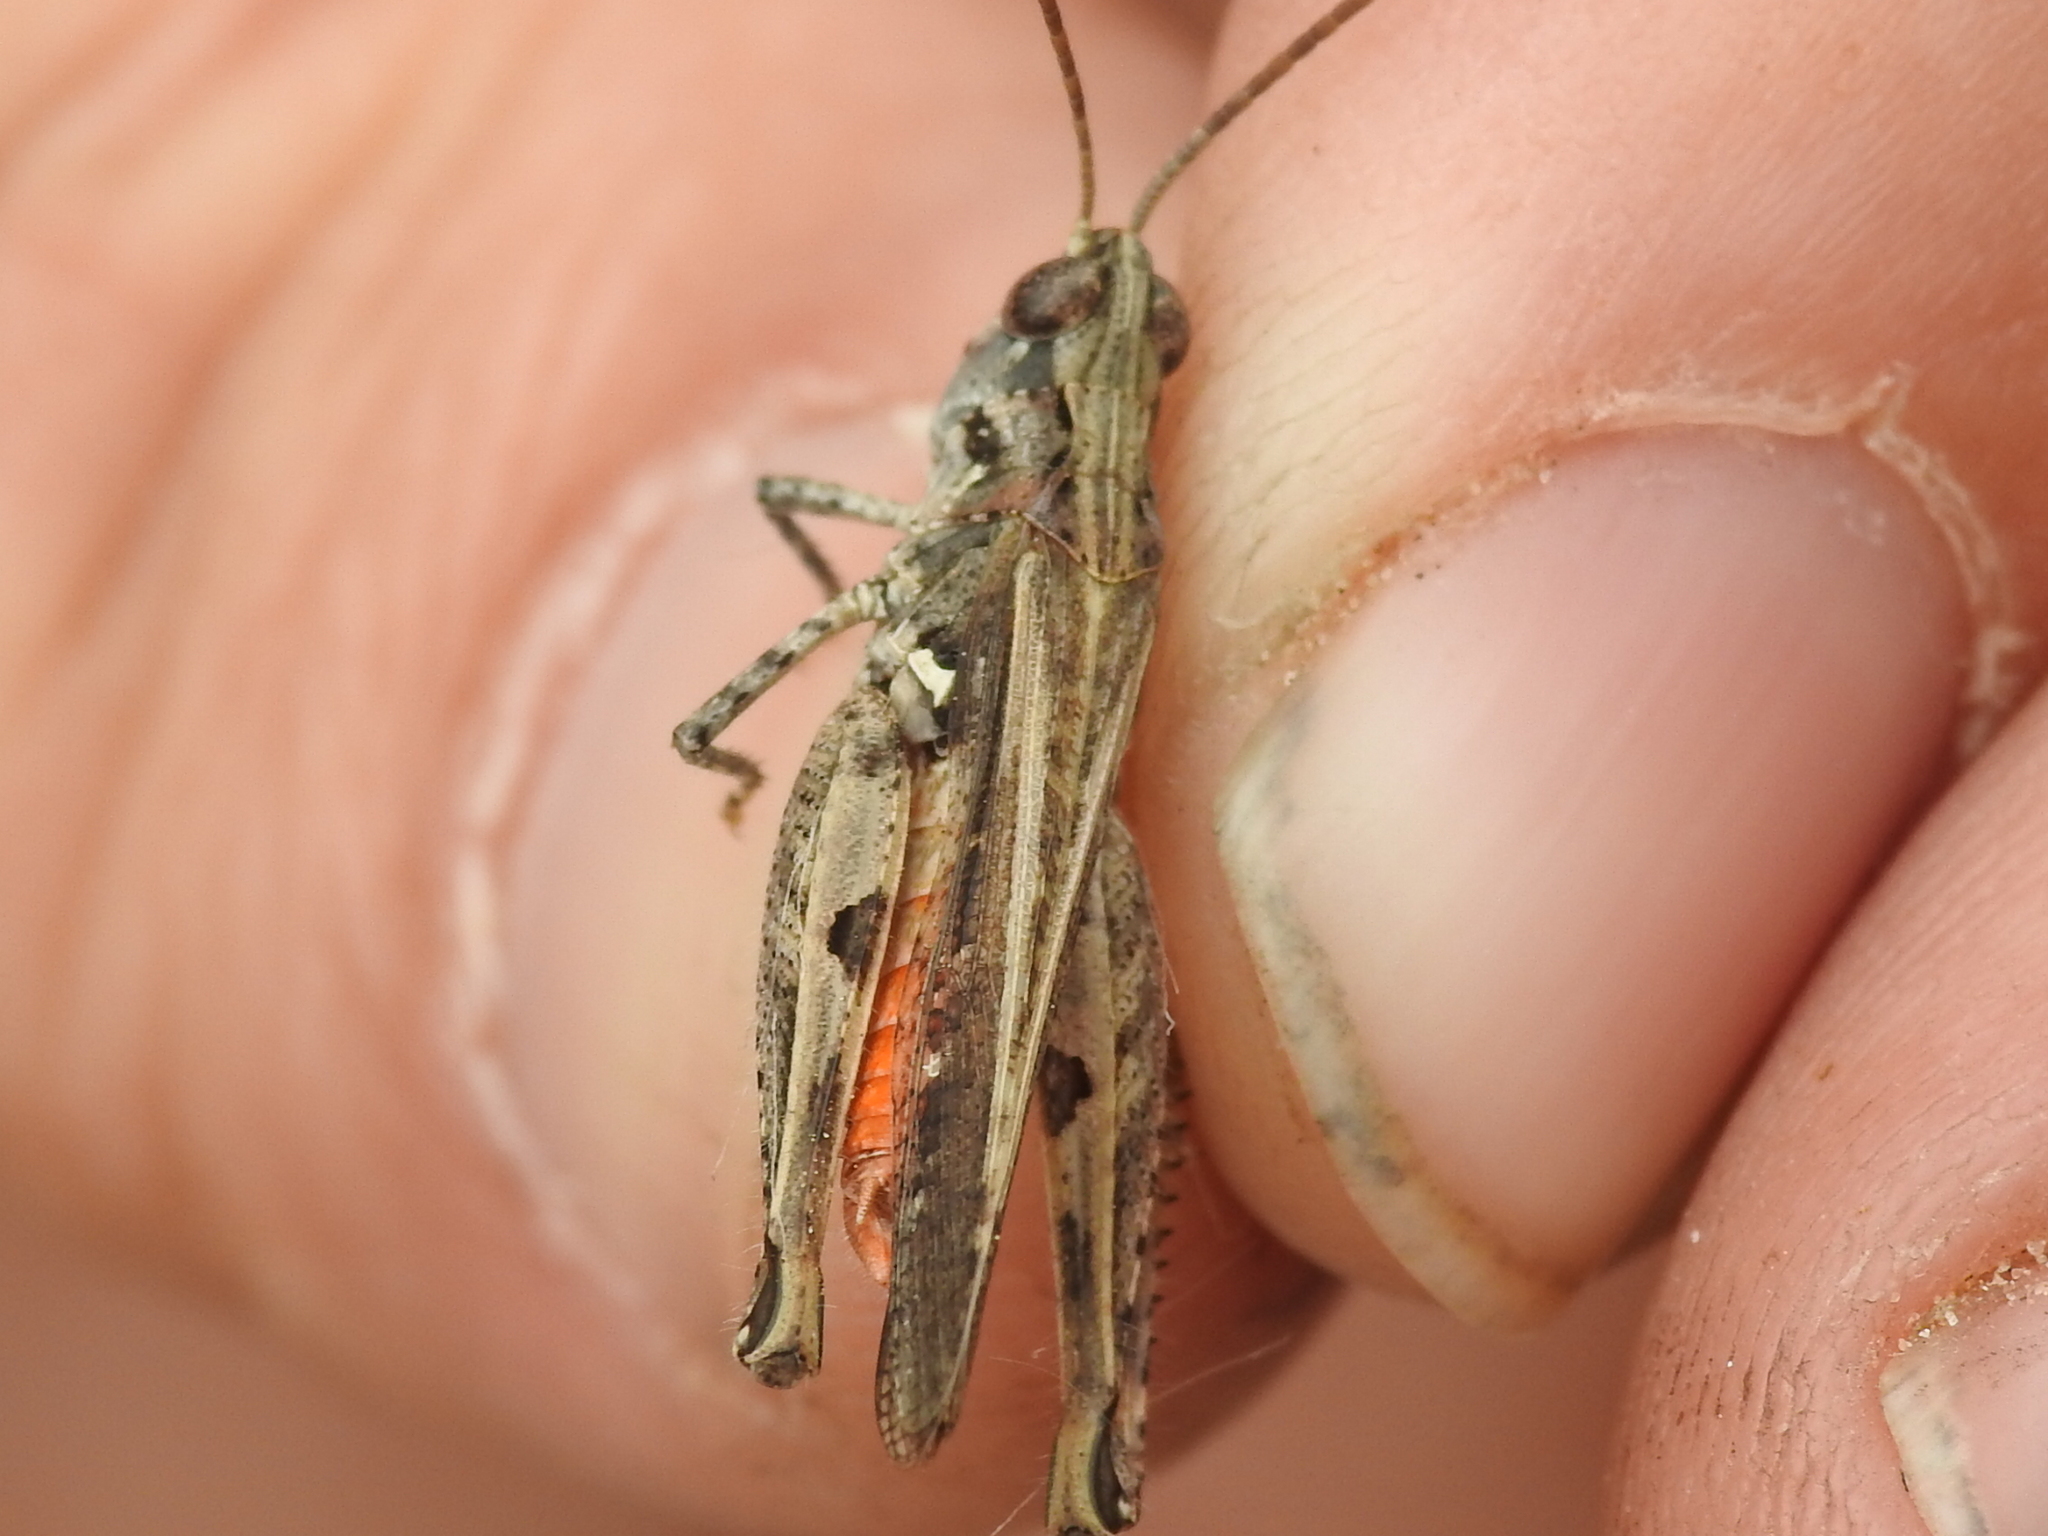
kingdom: Animalia
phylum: Arthropoda
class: Insecta
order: Orthoptera
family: Acrididae
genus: Psoloessa
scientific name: Psoloessa texana
